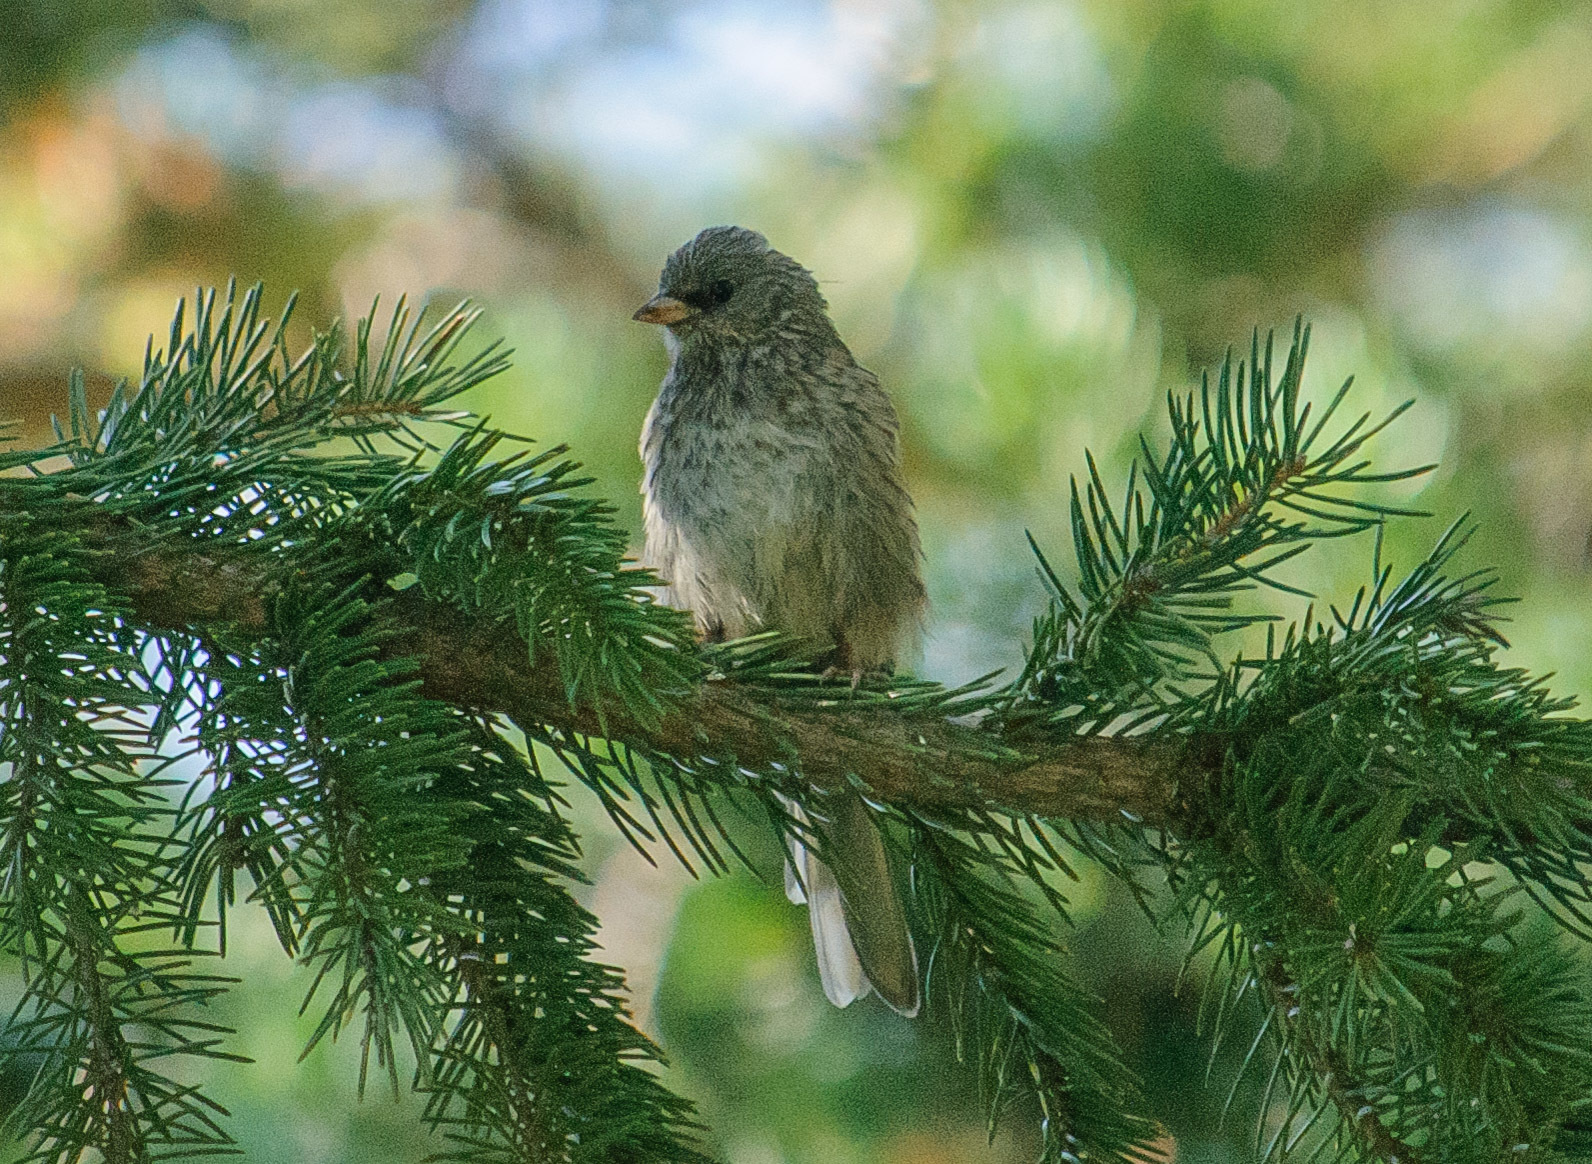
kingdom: Animalia
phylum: Chordata
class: Aves
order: Passeriformes
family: Passerellidae
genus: Junco
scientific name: Junco hyemalis
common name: Dark-eyed junco
